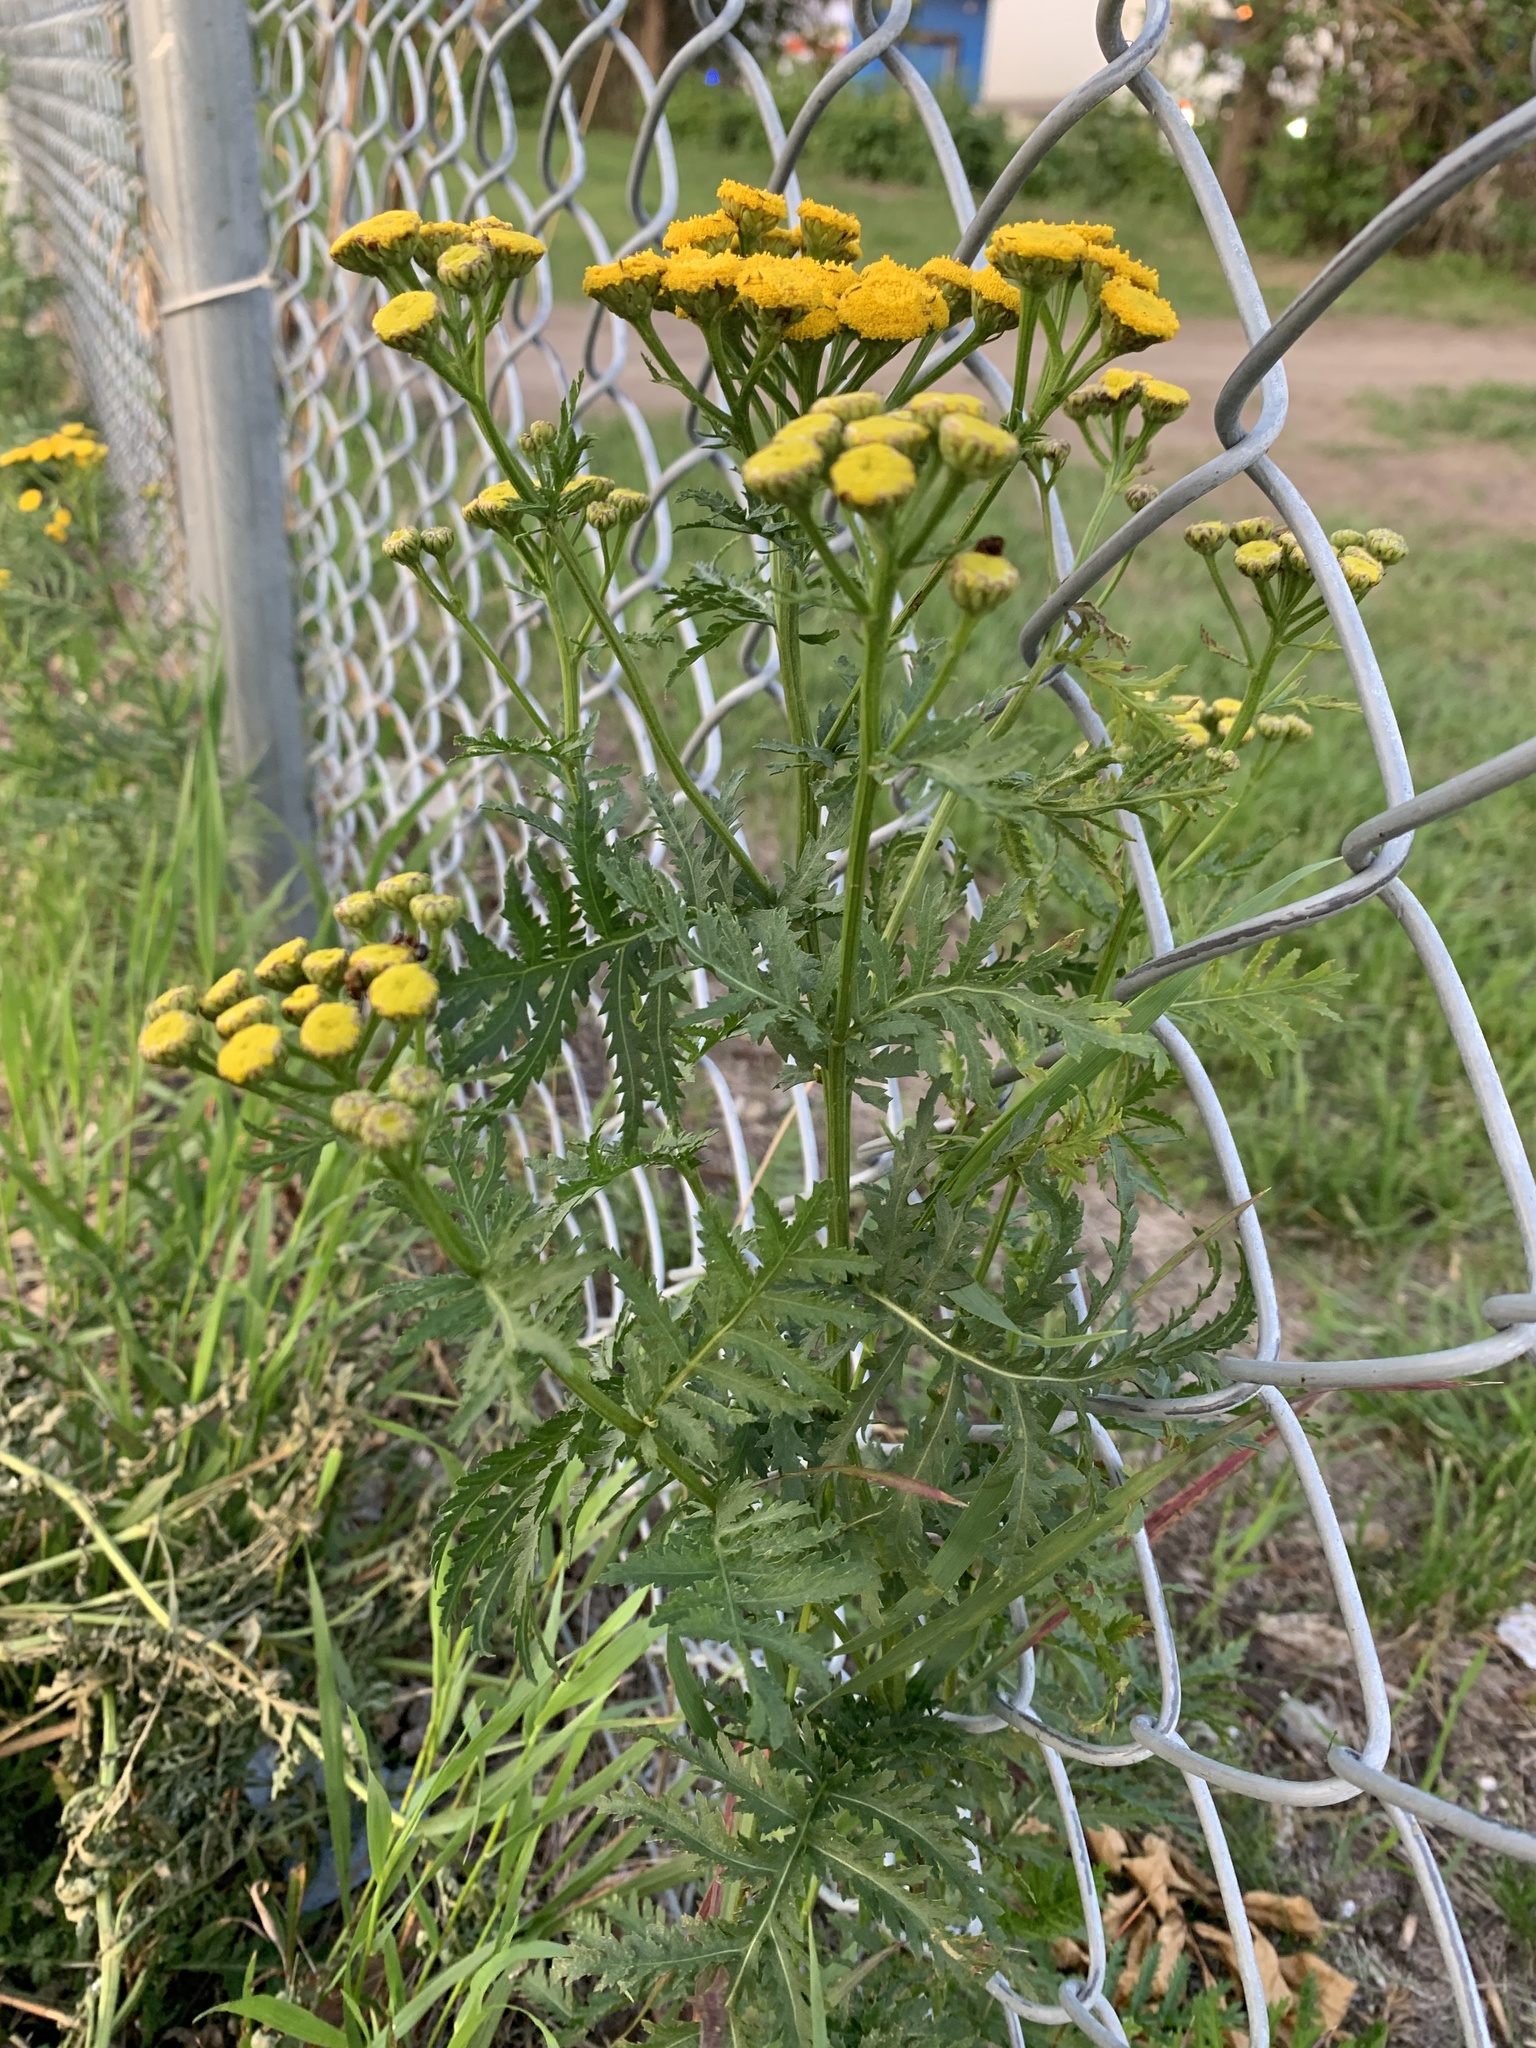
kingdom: Plantae
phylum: Tracheophyta
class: Magnoliopsida
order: Asterales
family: Asteraceae
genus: Tanacetum
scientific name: Tanacetum vulgare
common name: Common tansy
